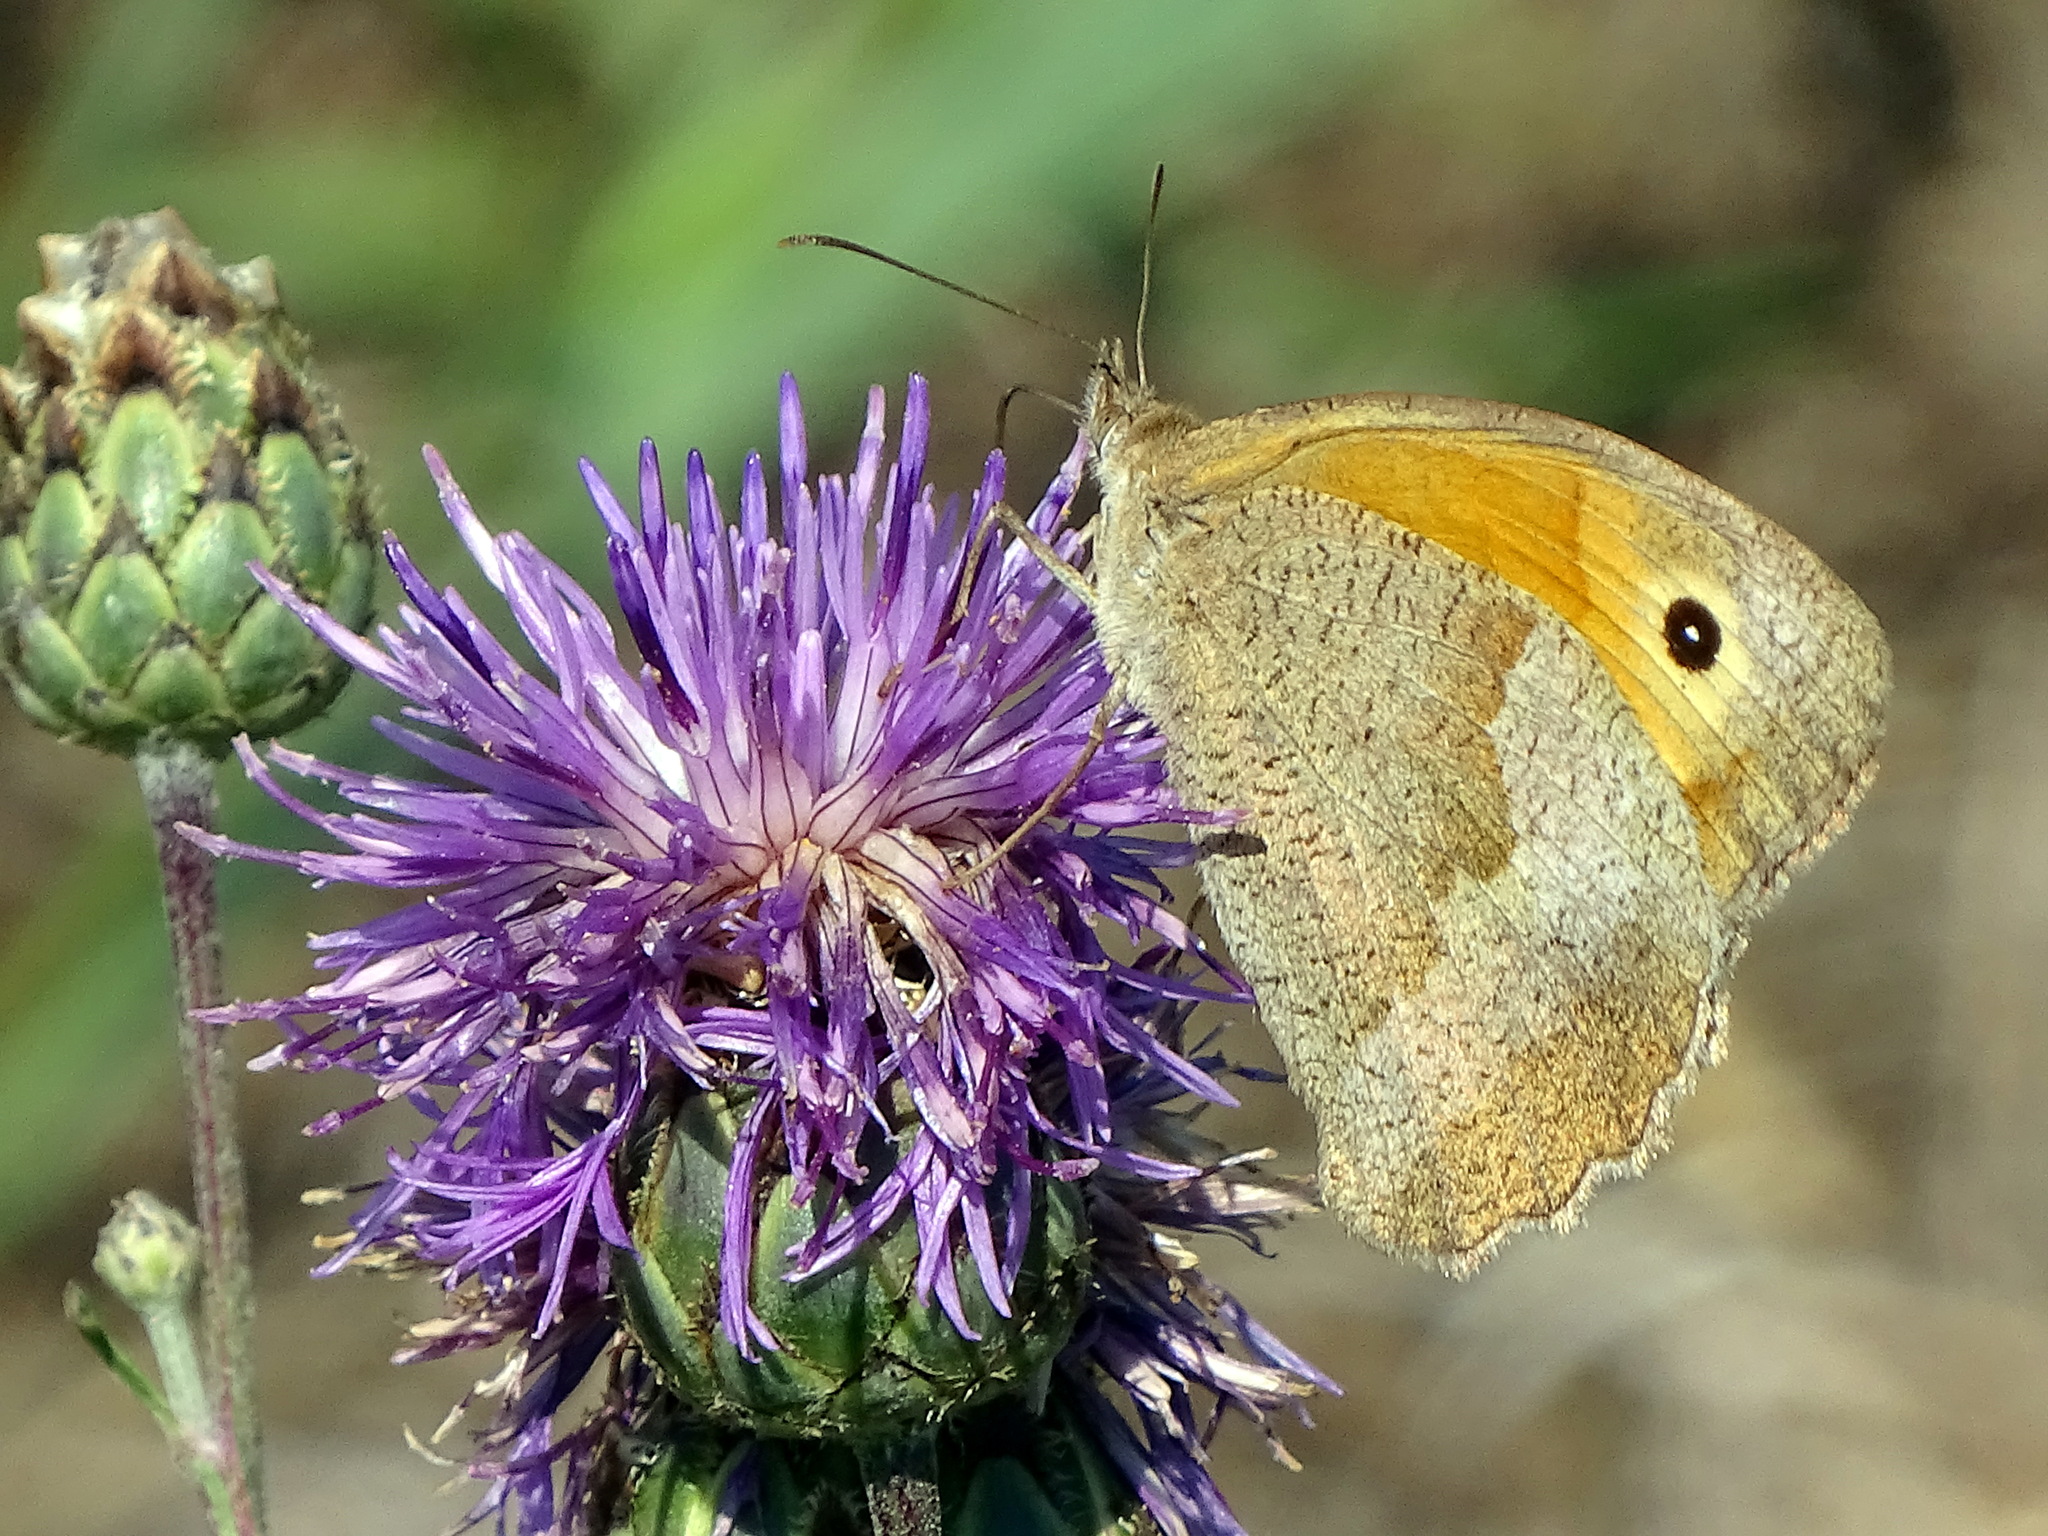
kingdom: Animalia
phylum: Arthropoda
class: Insecta
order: Lepidoptera
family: Nymphalidae
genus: Maniola
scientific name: Maniola jurtina
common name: Meadow brown
